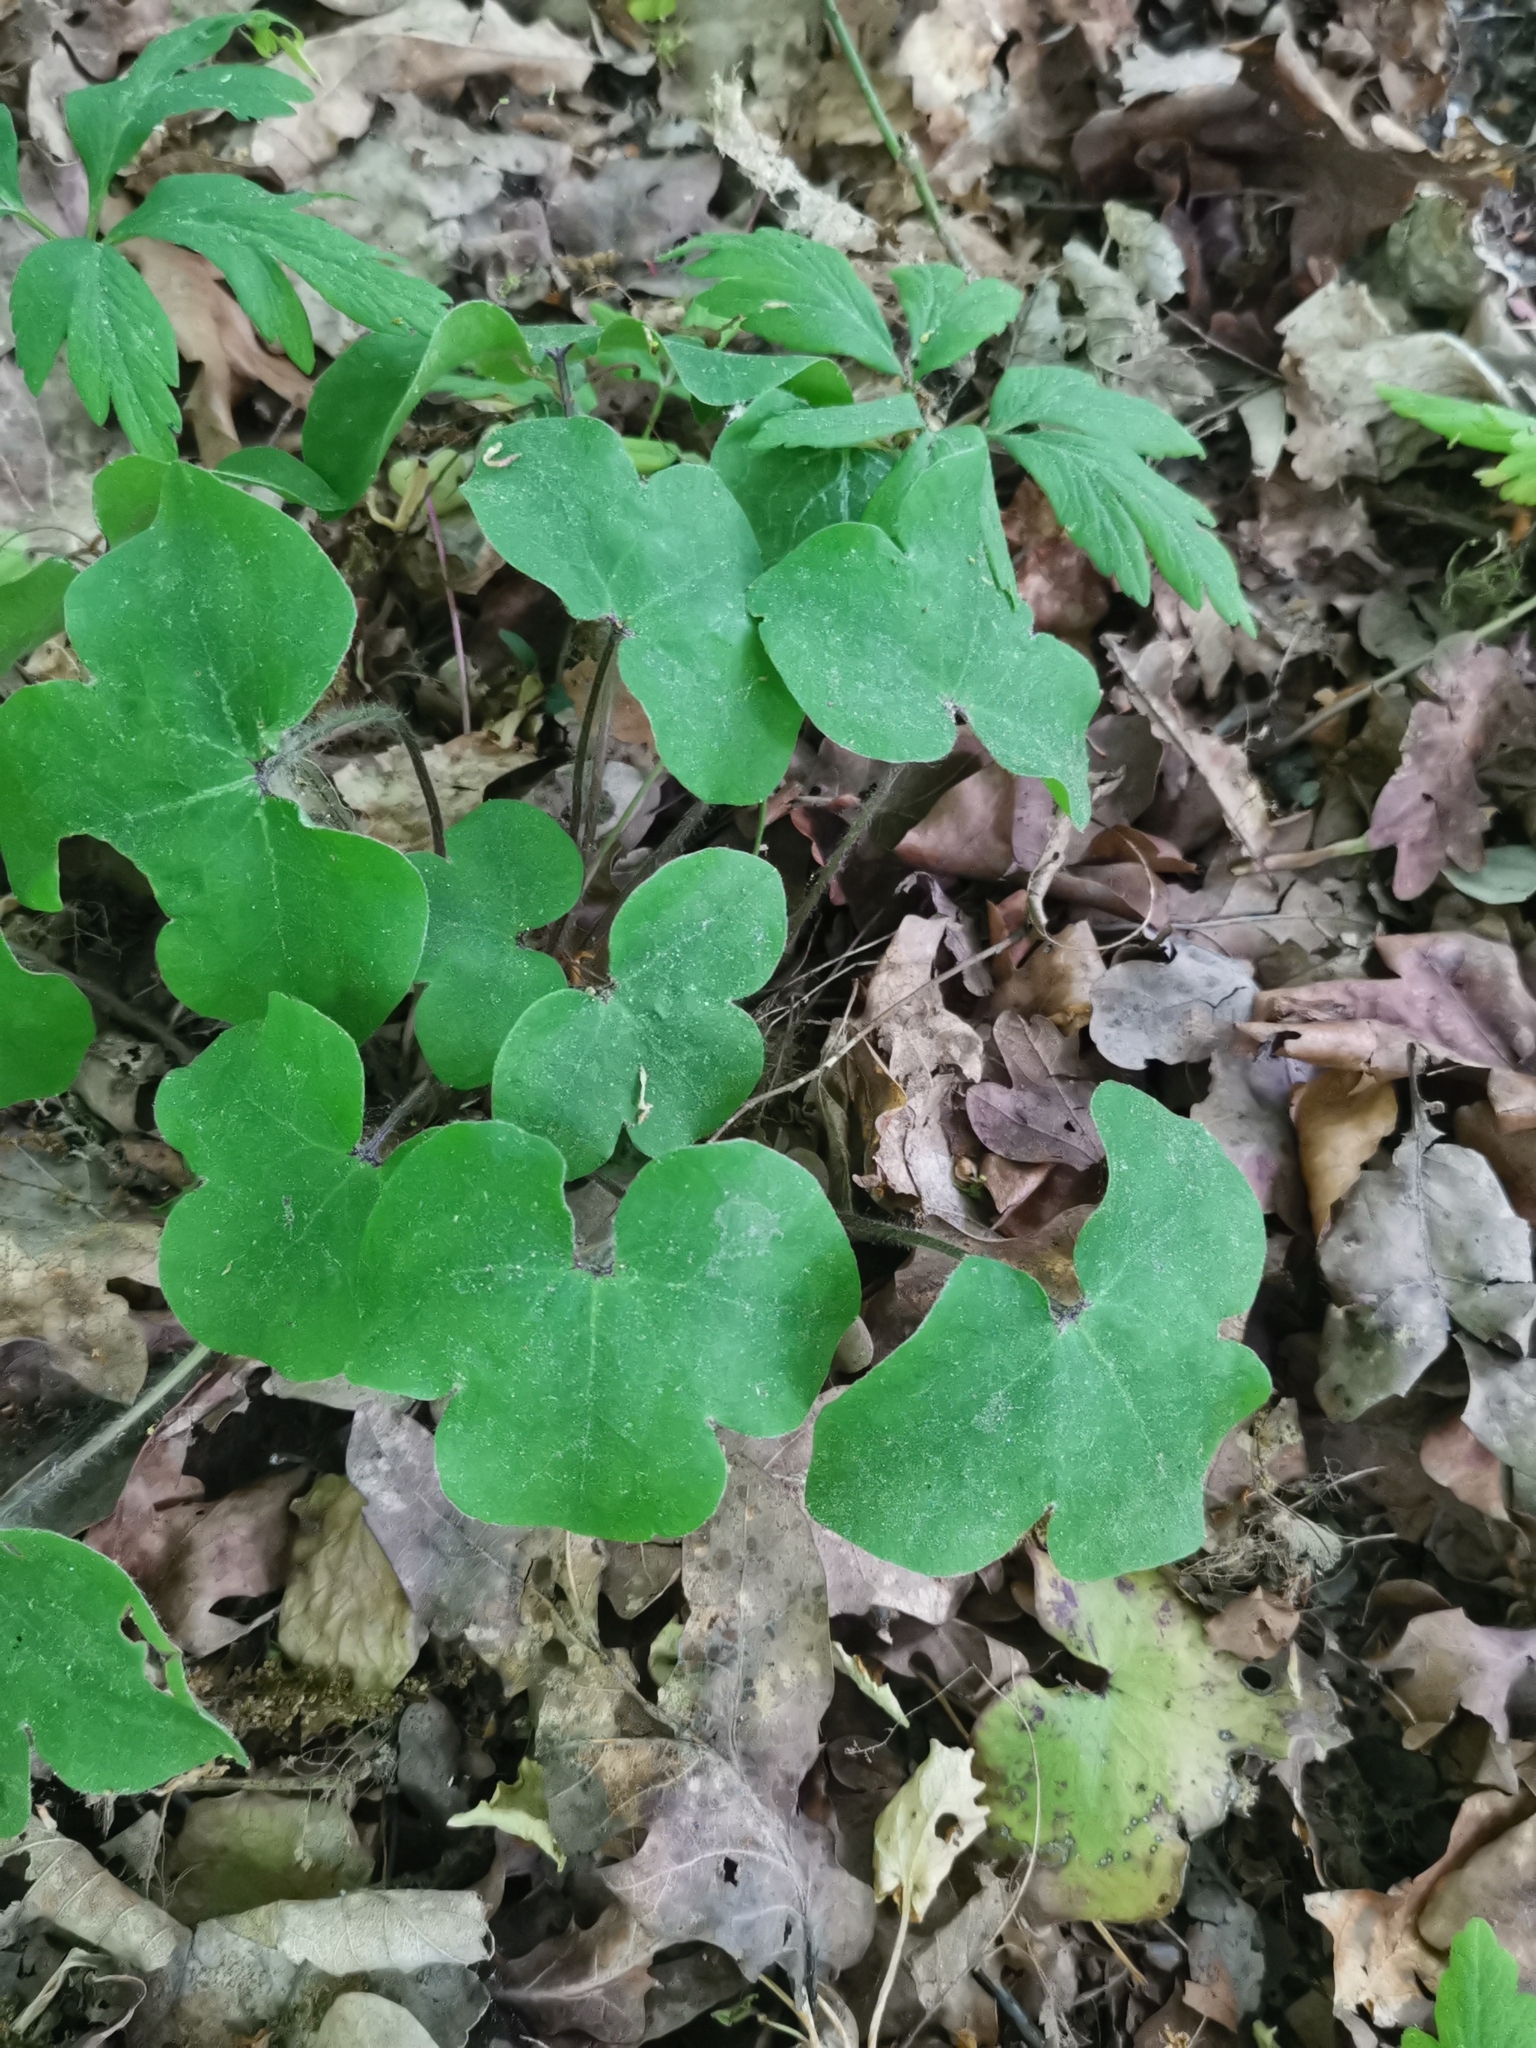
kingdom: Plantae
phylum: Tracheophyta
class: Magnoliopsida
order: Ranunculales
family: Ranunculaceae
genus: Hepatica
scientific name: Hepatica nobilis
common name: Liverleaf
